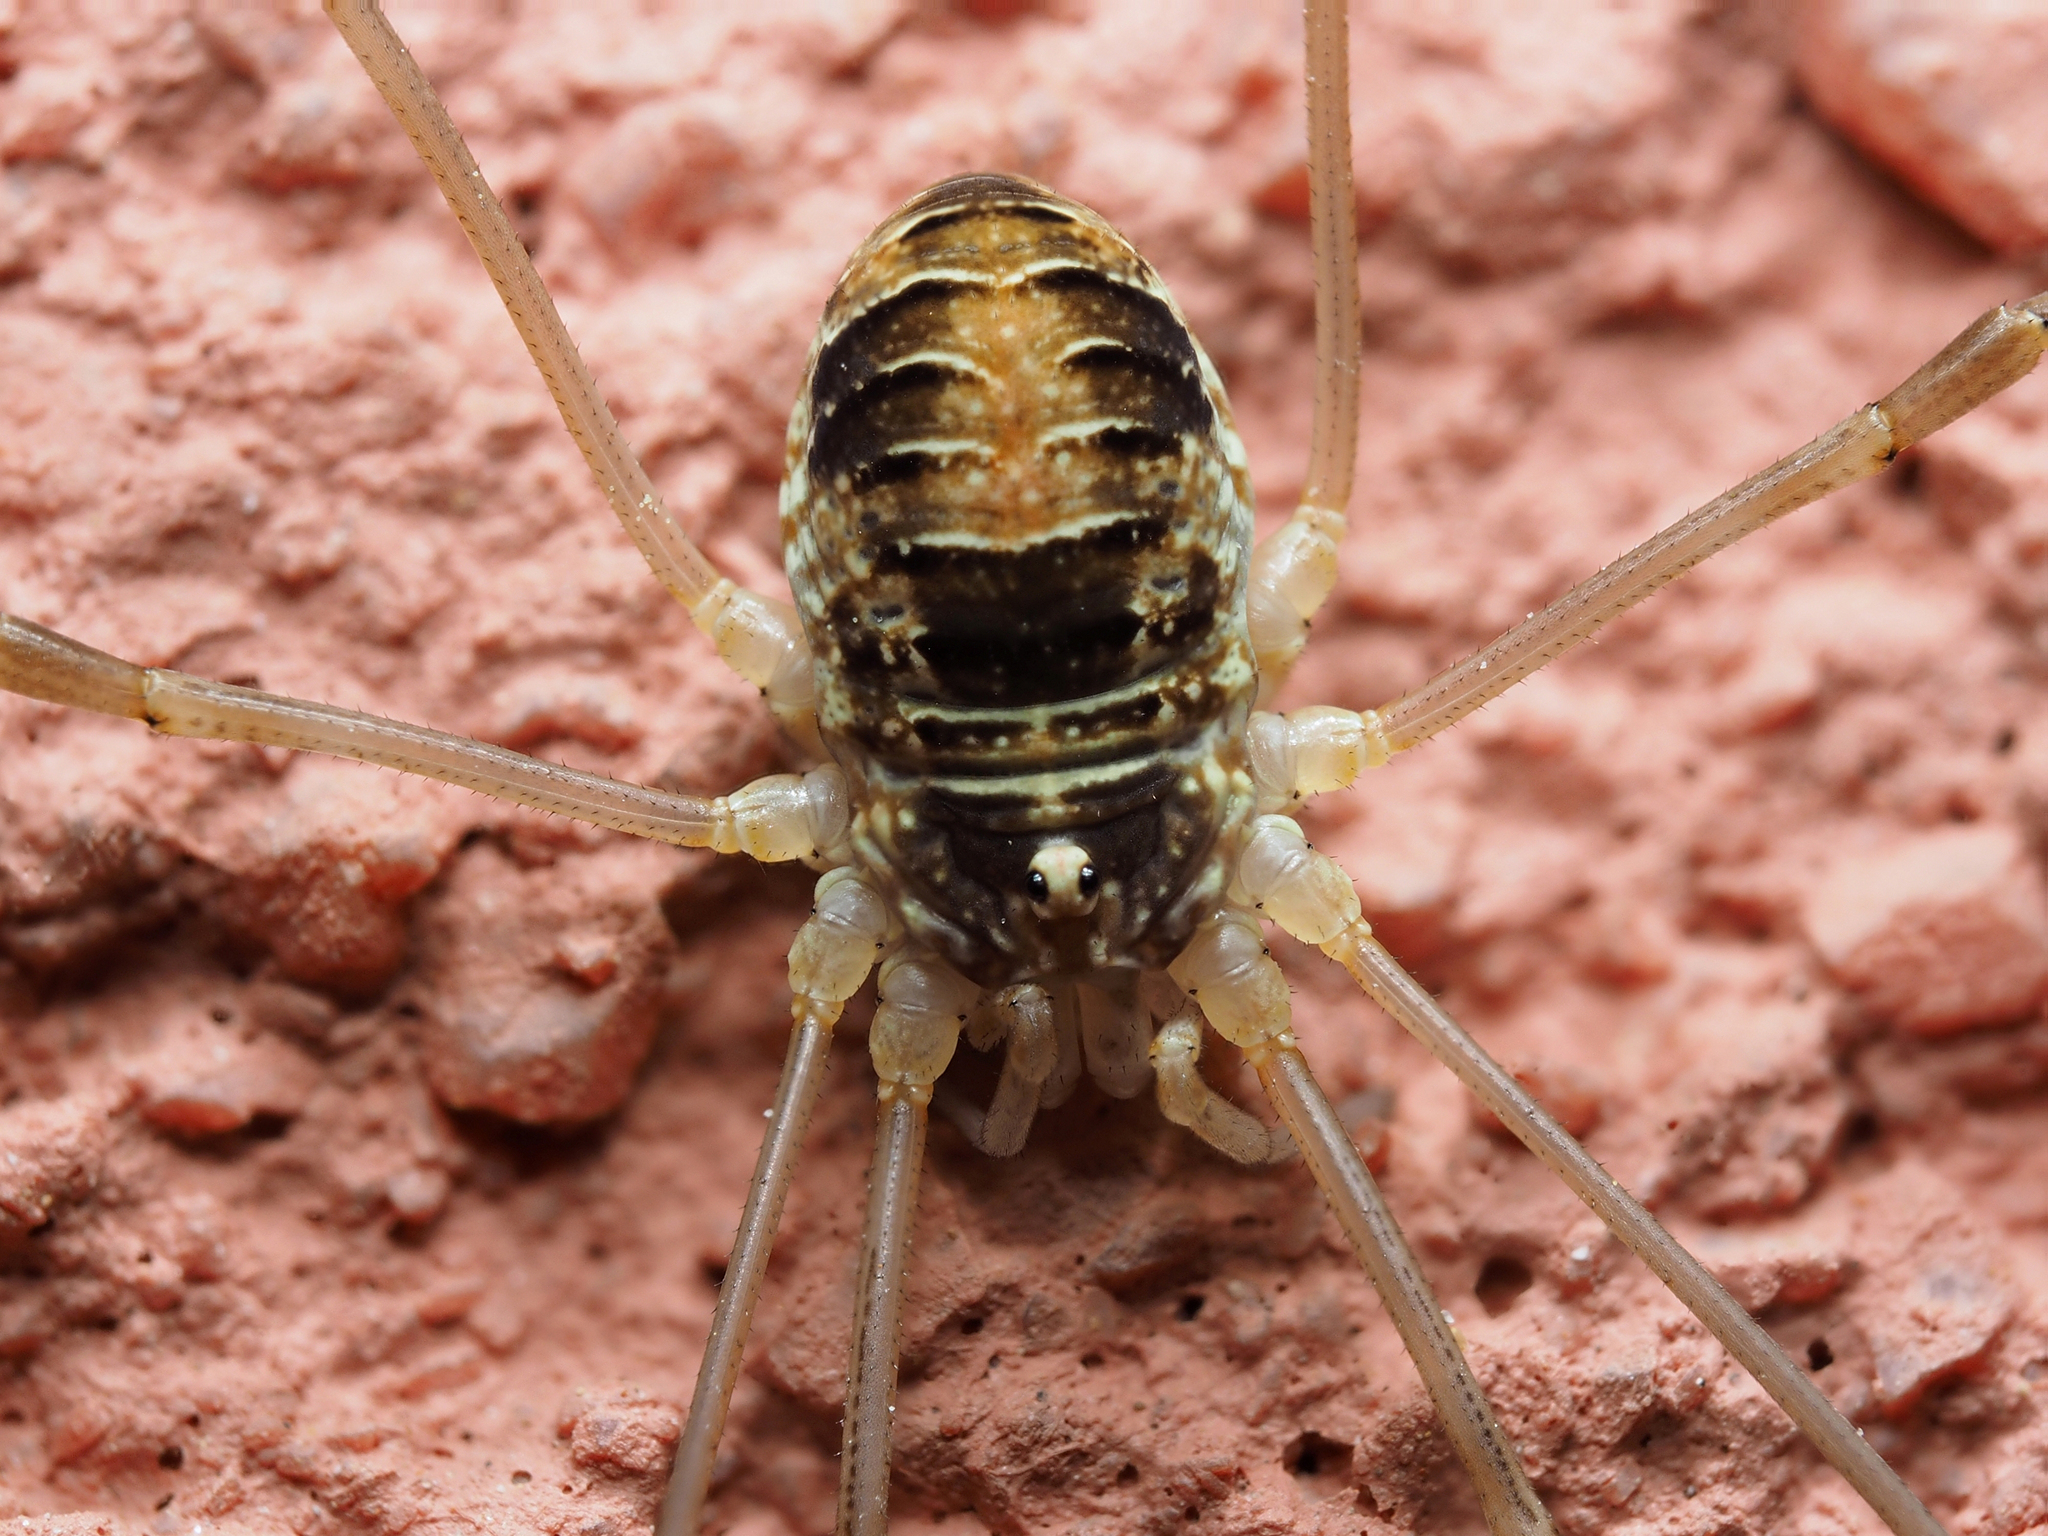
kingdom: Animalia
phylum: Arthropoda
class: Arachnida
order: Opiliones
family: Phalangiidae
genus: Opilio
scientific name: Opilio canestrinii
